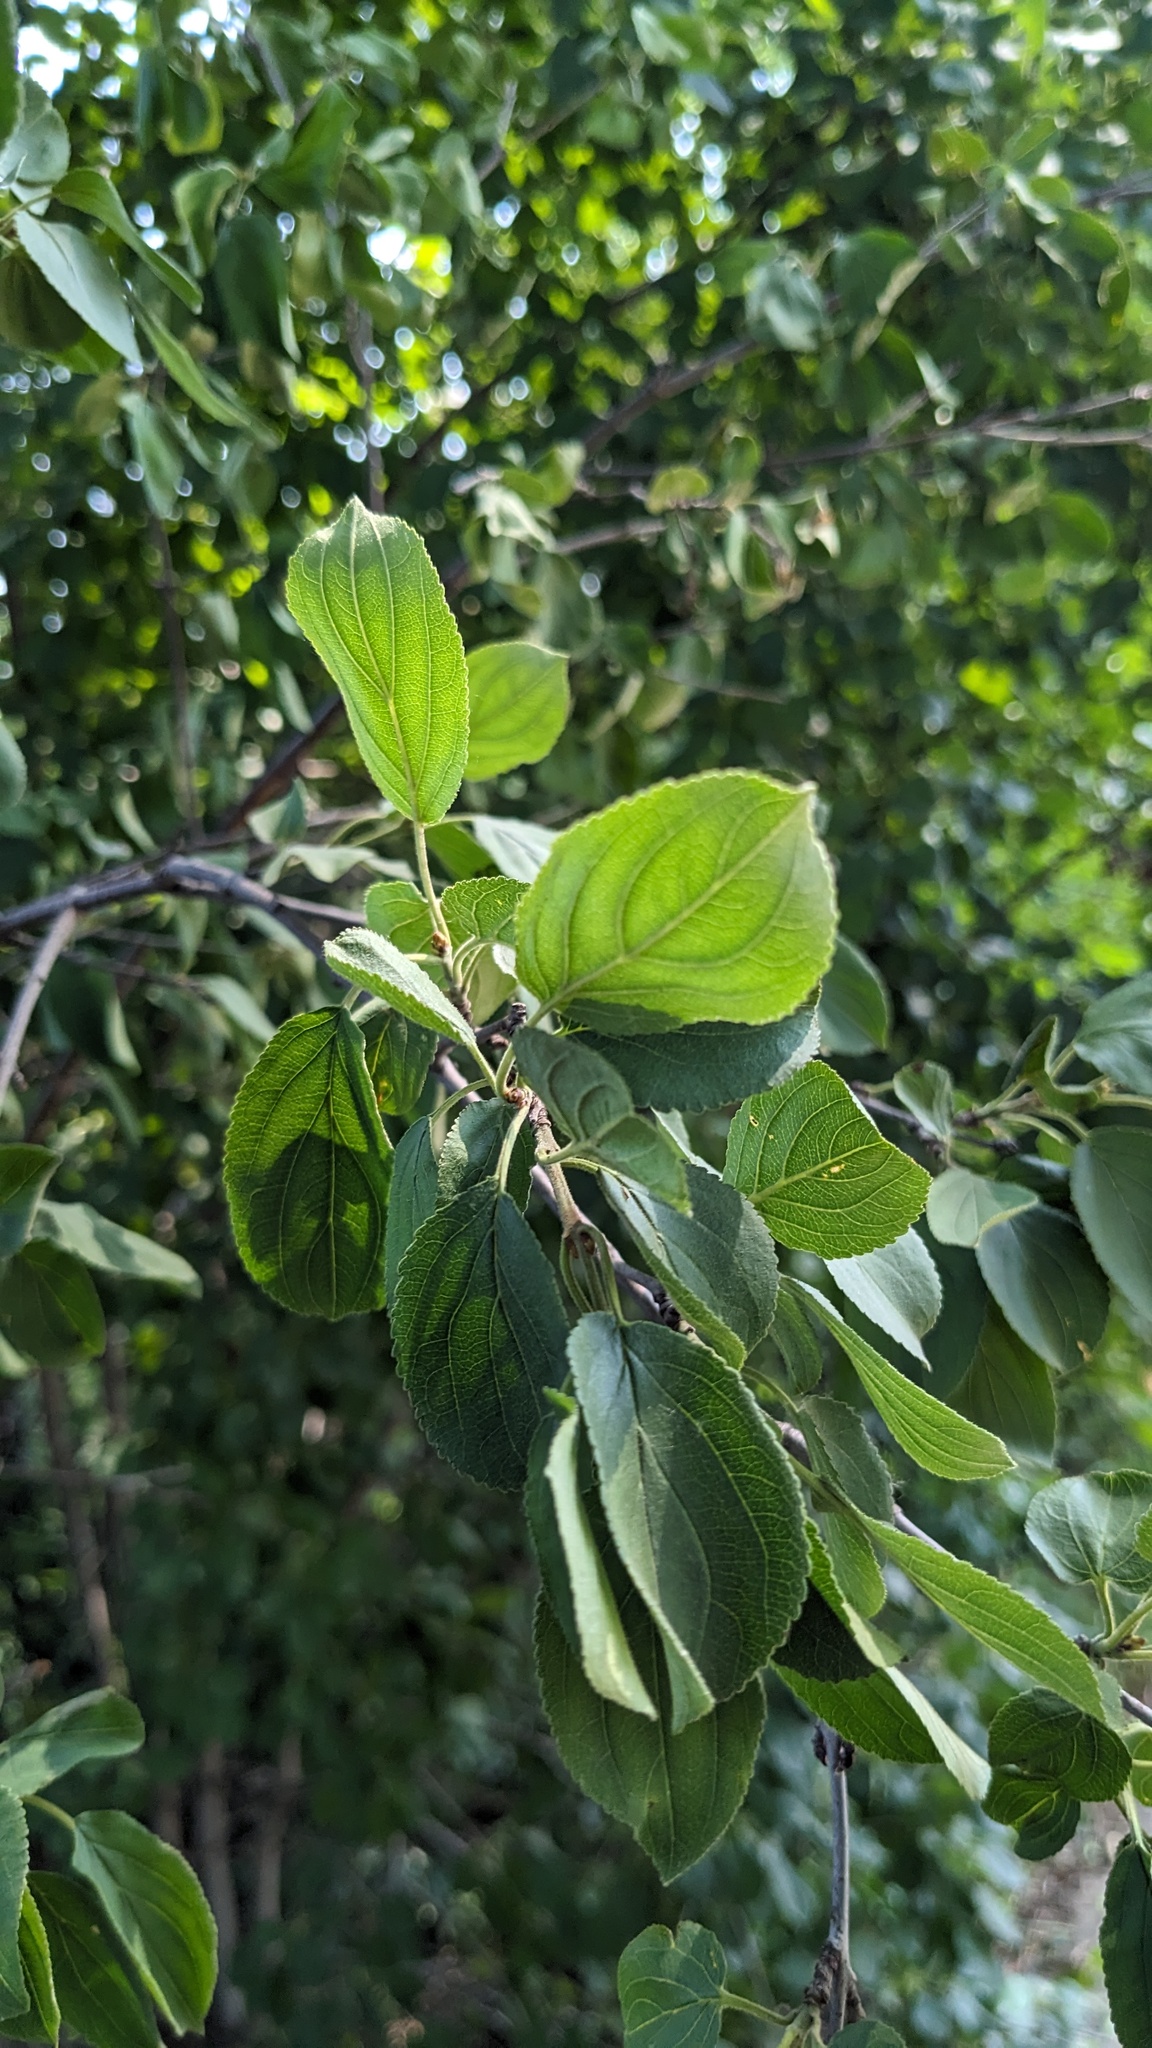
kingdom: Plantae
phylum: Tracheophyta
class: Magnoliopsida
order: Rosales
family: Rhamnaceae
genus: Rhamnus
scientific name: Rhamnus cathartica
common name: Common buckthorn
